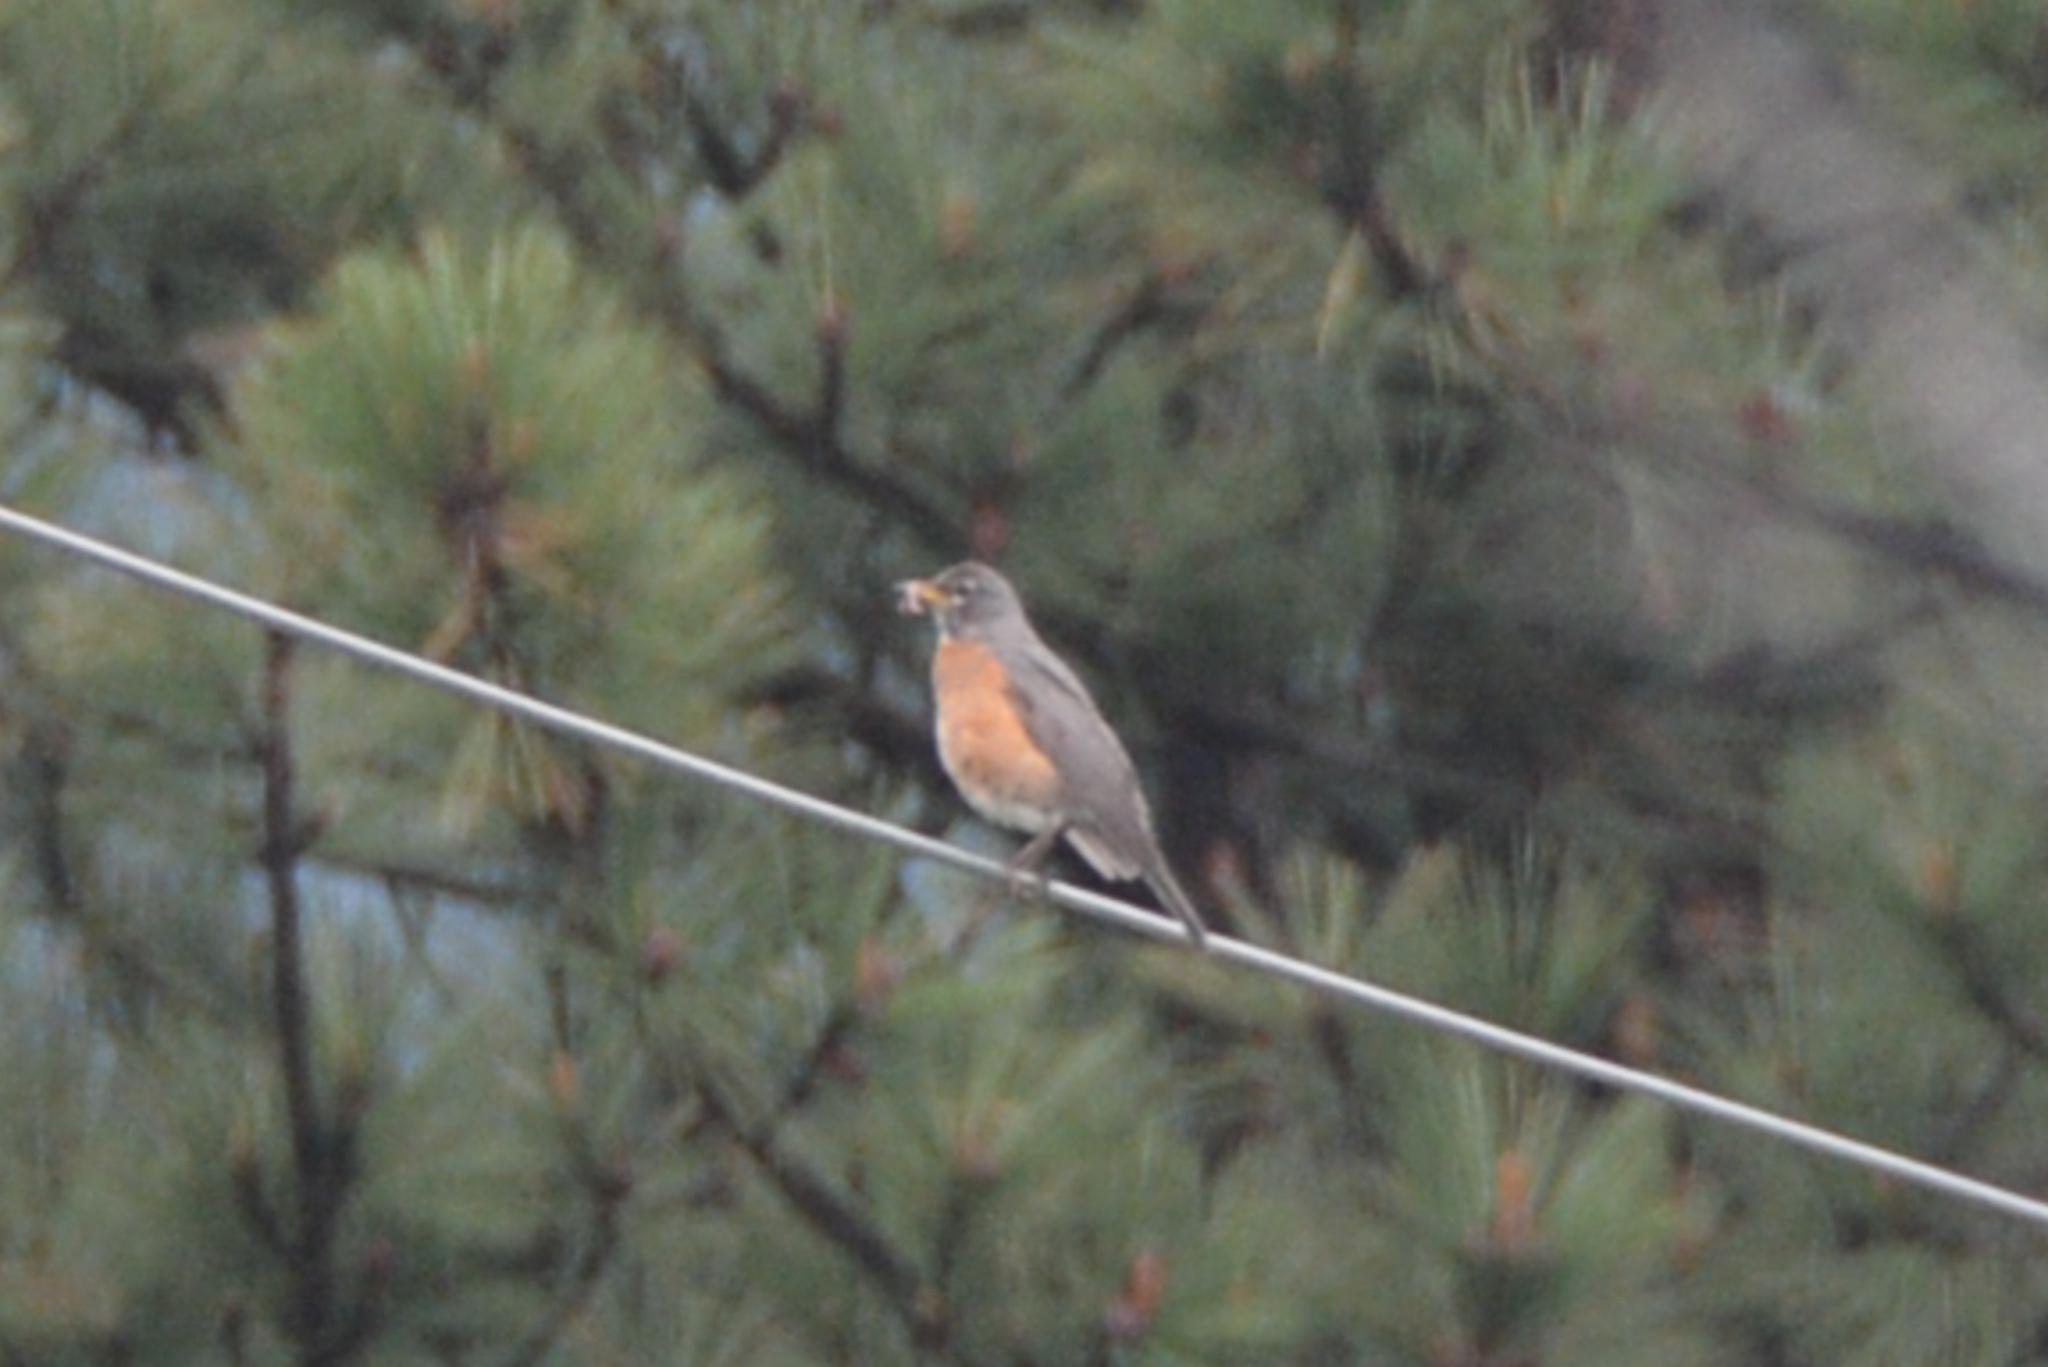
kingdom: Animalia
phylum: Chordata
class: Aves
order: Passeriformes
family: Turdidae
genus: Turdus
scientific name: Turdus migratorius
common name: American robin
